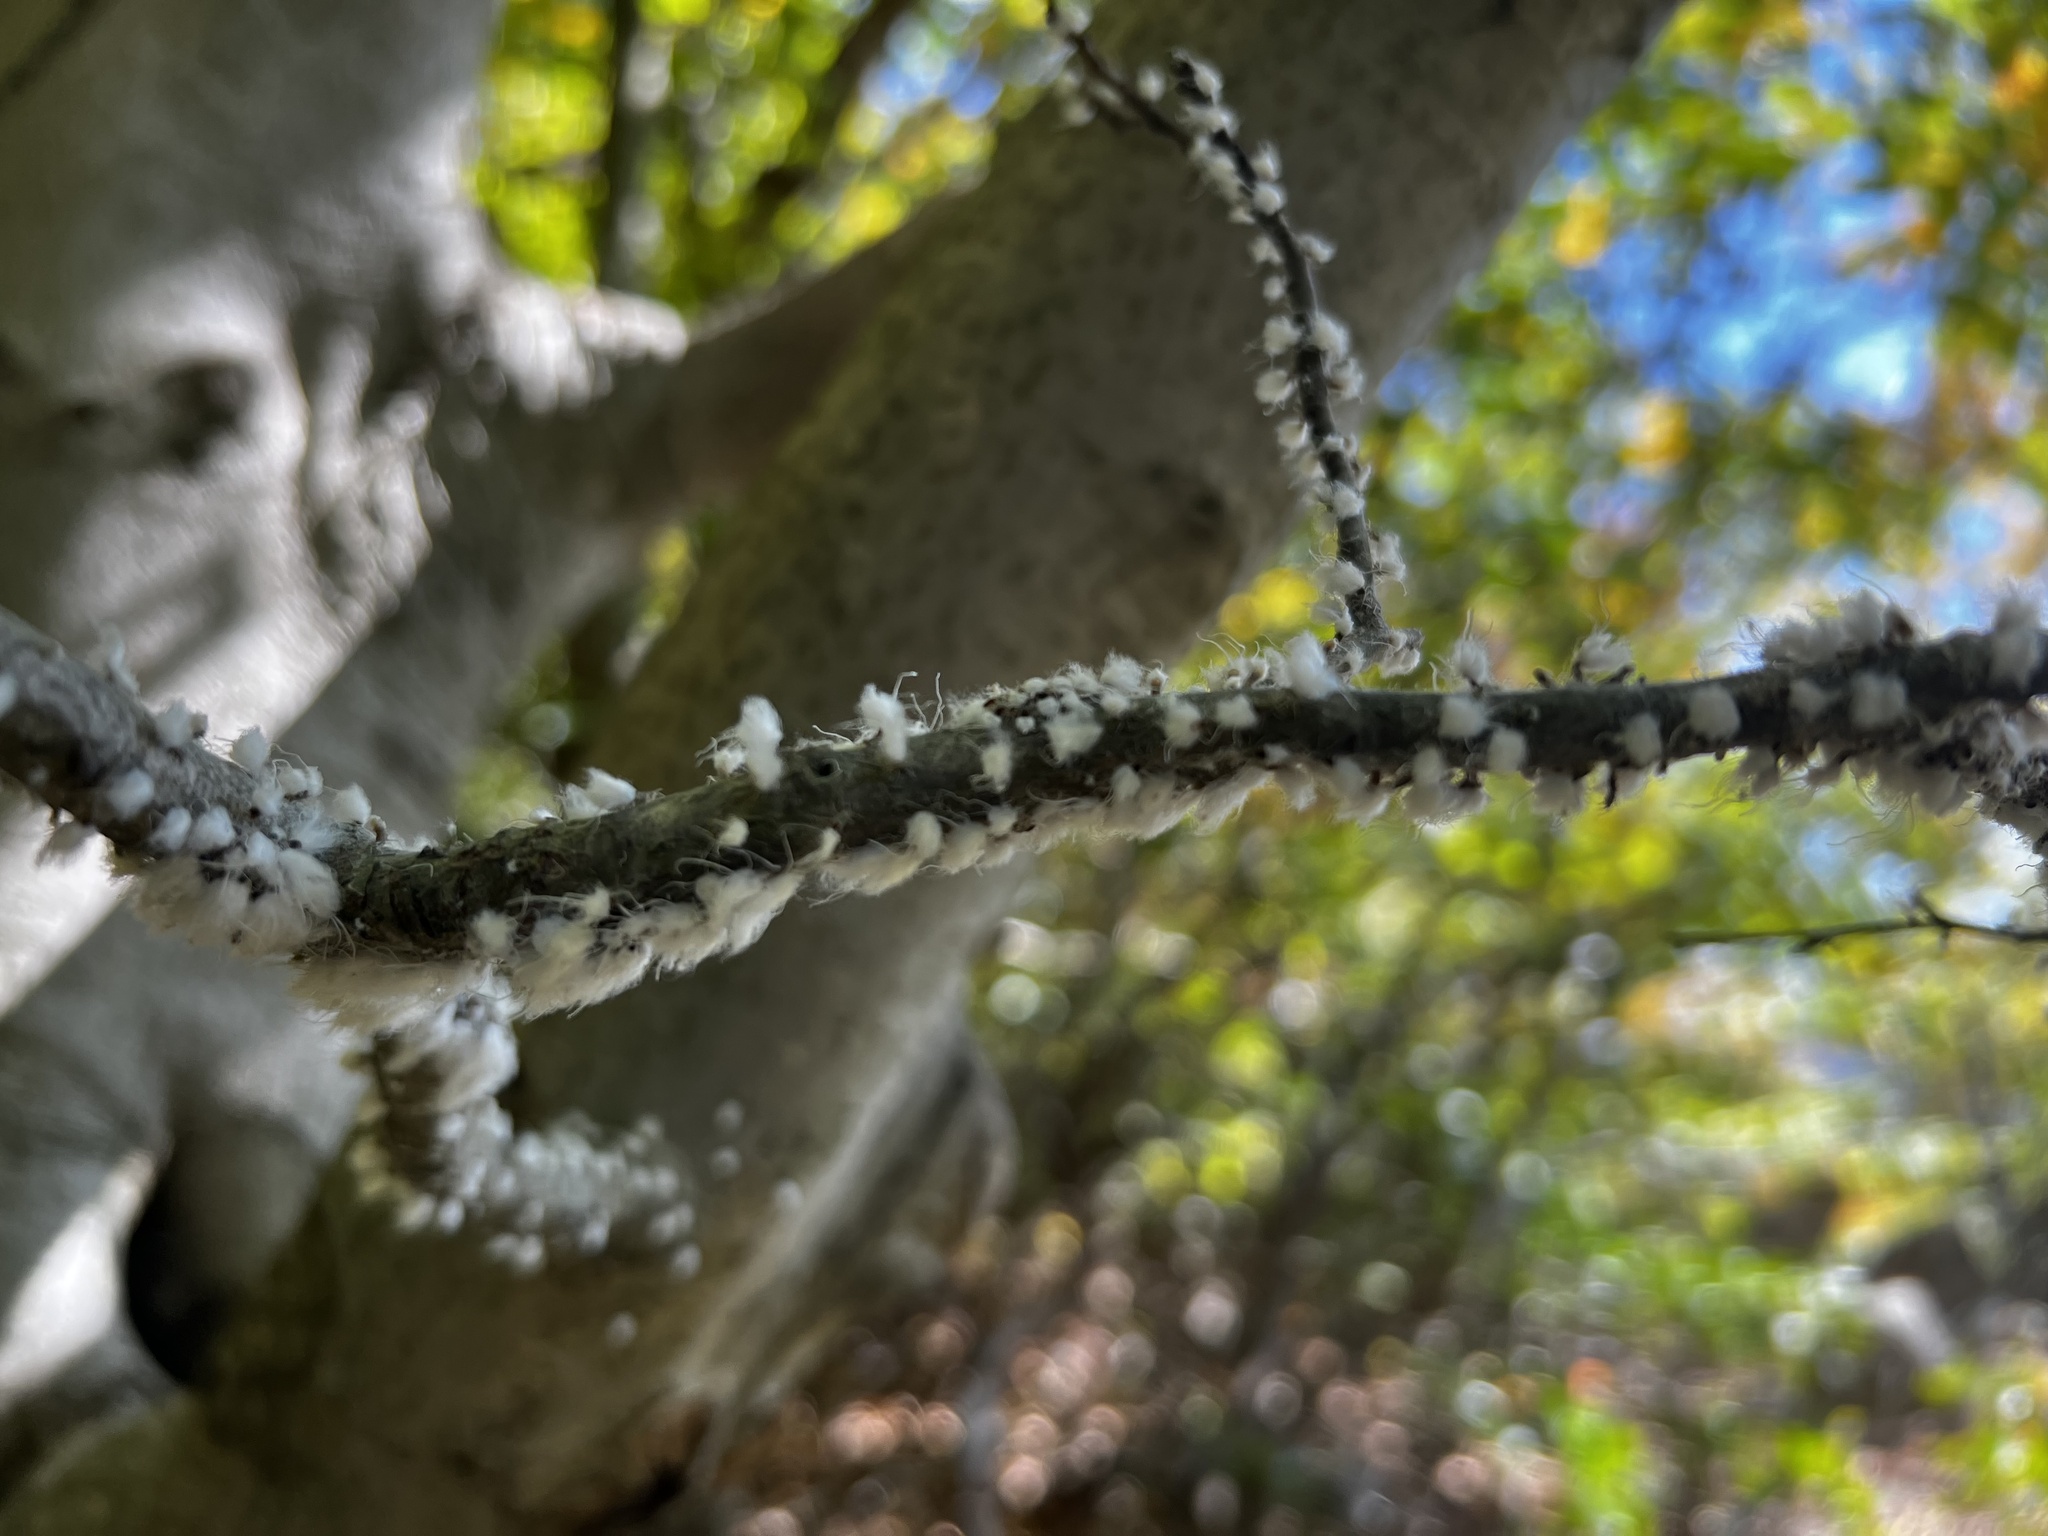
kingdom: Animalia
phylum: Arthropoda
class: Insecta
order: Hemiptera
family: Aphididae
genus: Grylloprociphilus
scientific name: Grylloprociphilus imbricator
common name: Beech blight aphid
